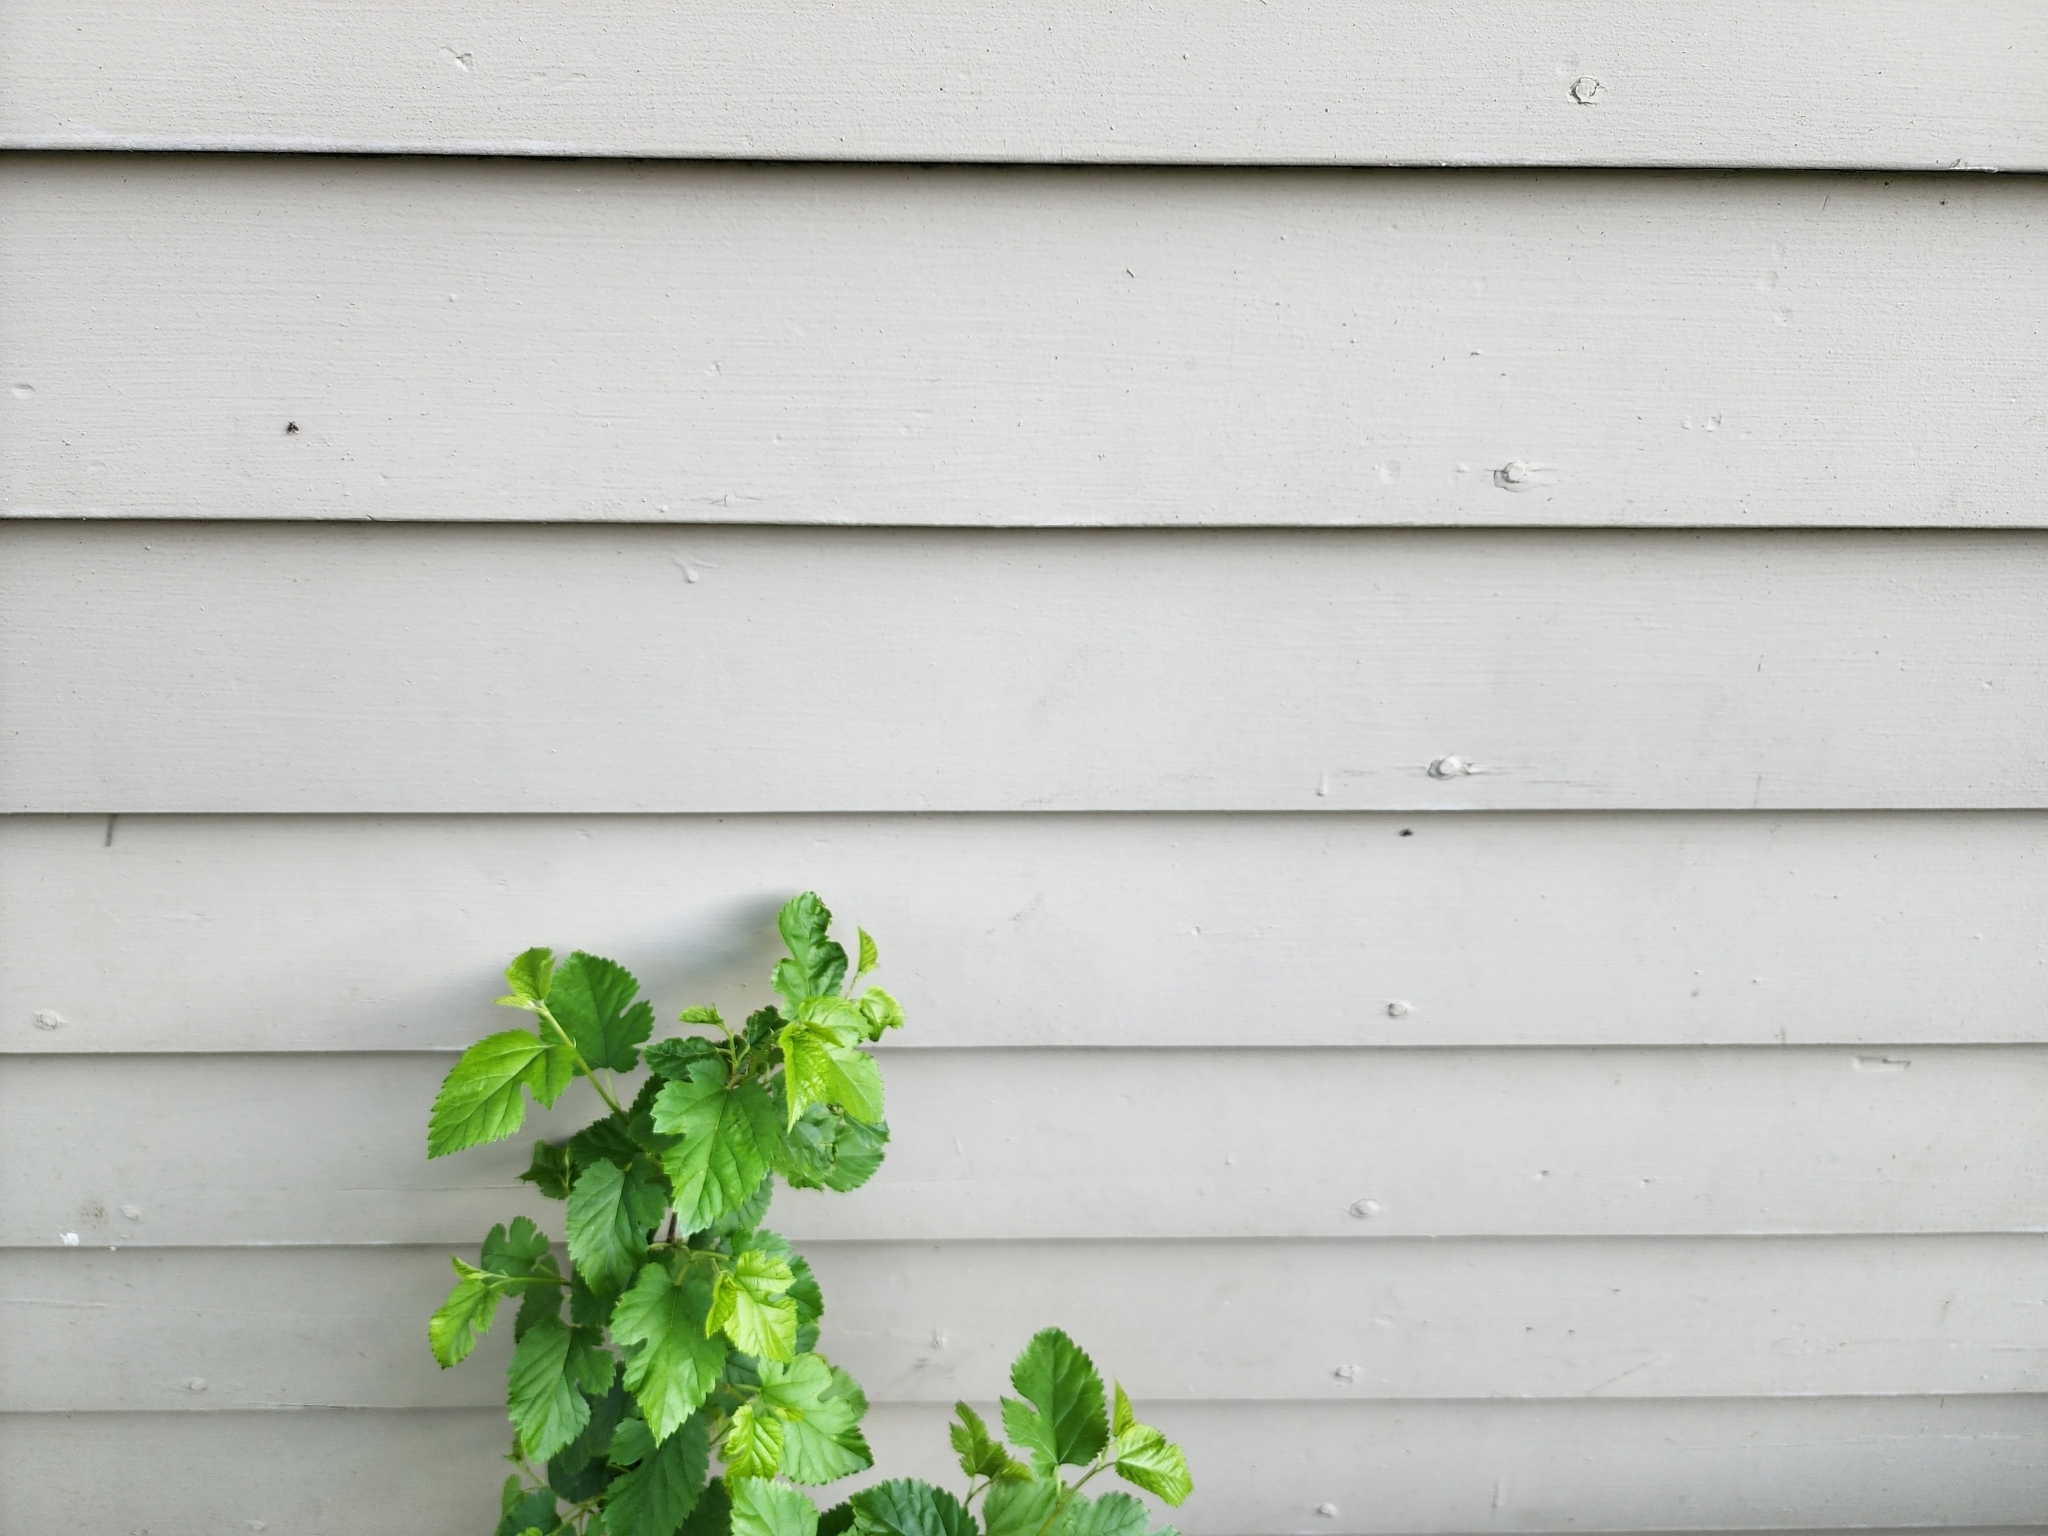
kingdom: Animalia
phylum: Arthropoda
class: Insecta
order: Diptera
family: Psychodidae
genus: Lepiseodina
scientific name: Lepiseodina
